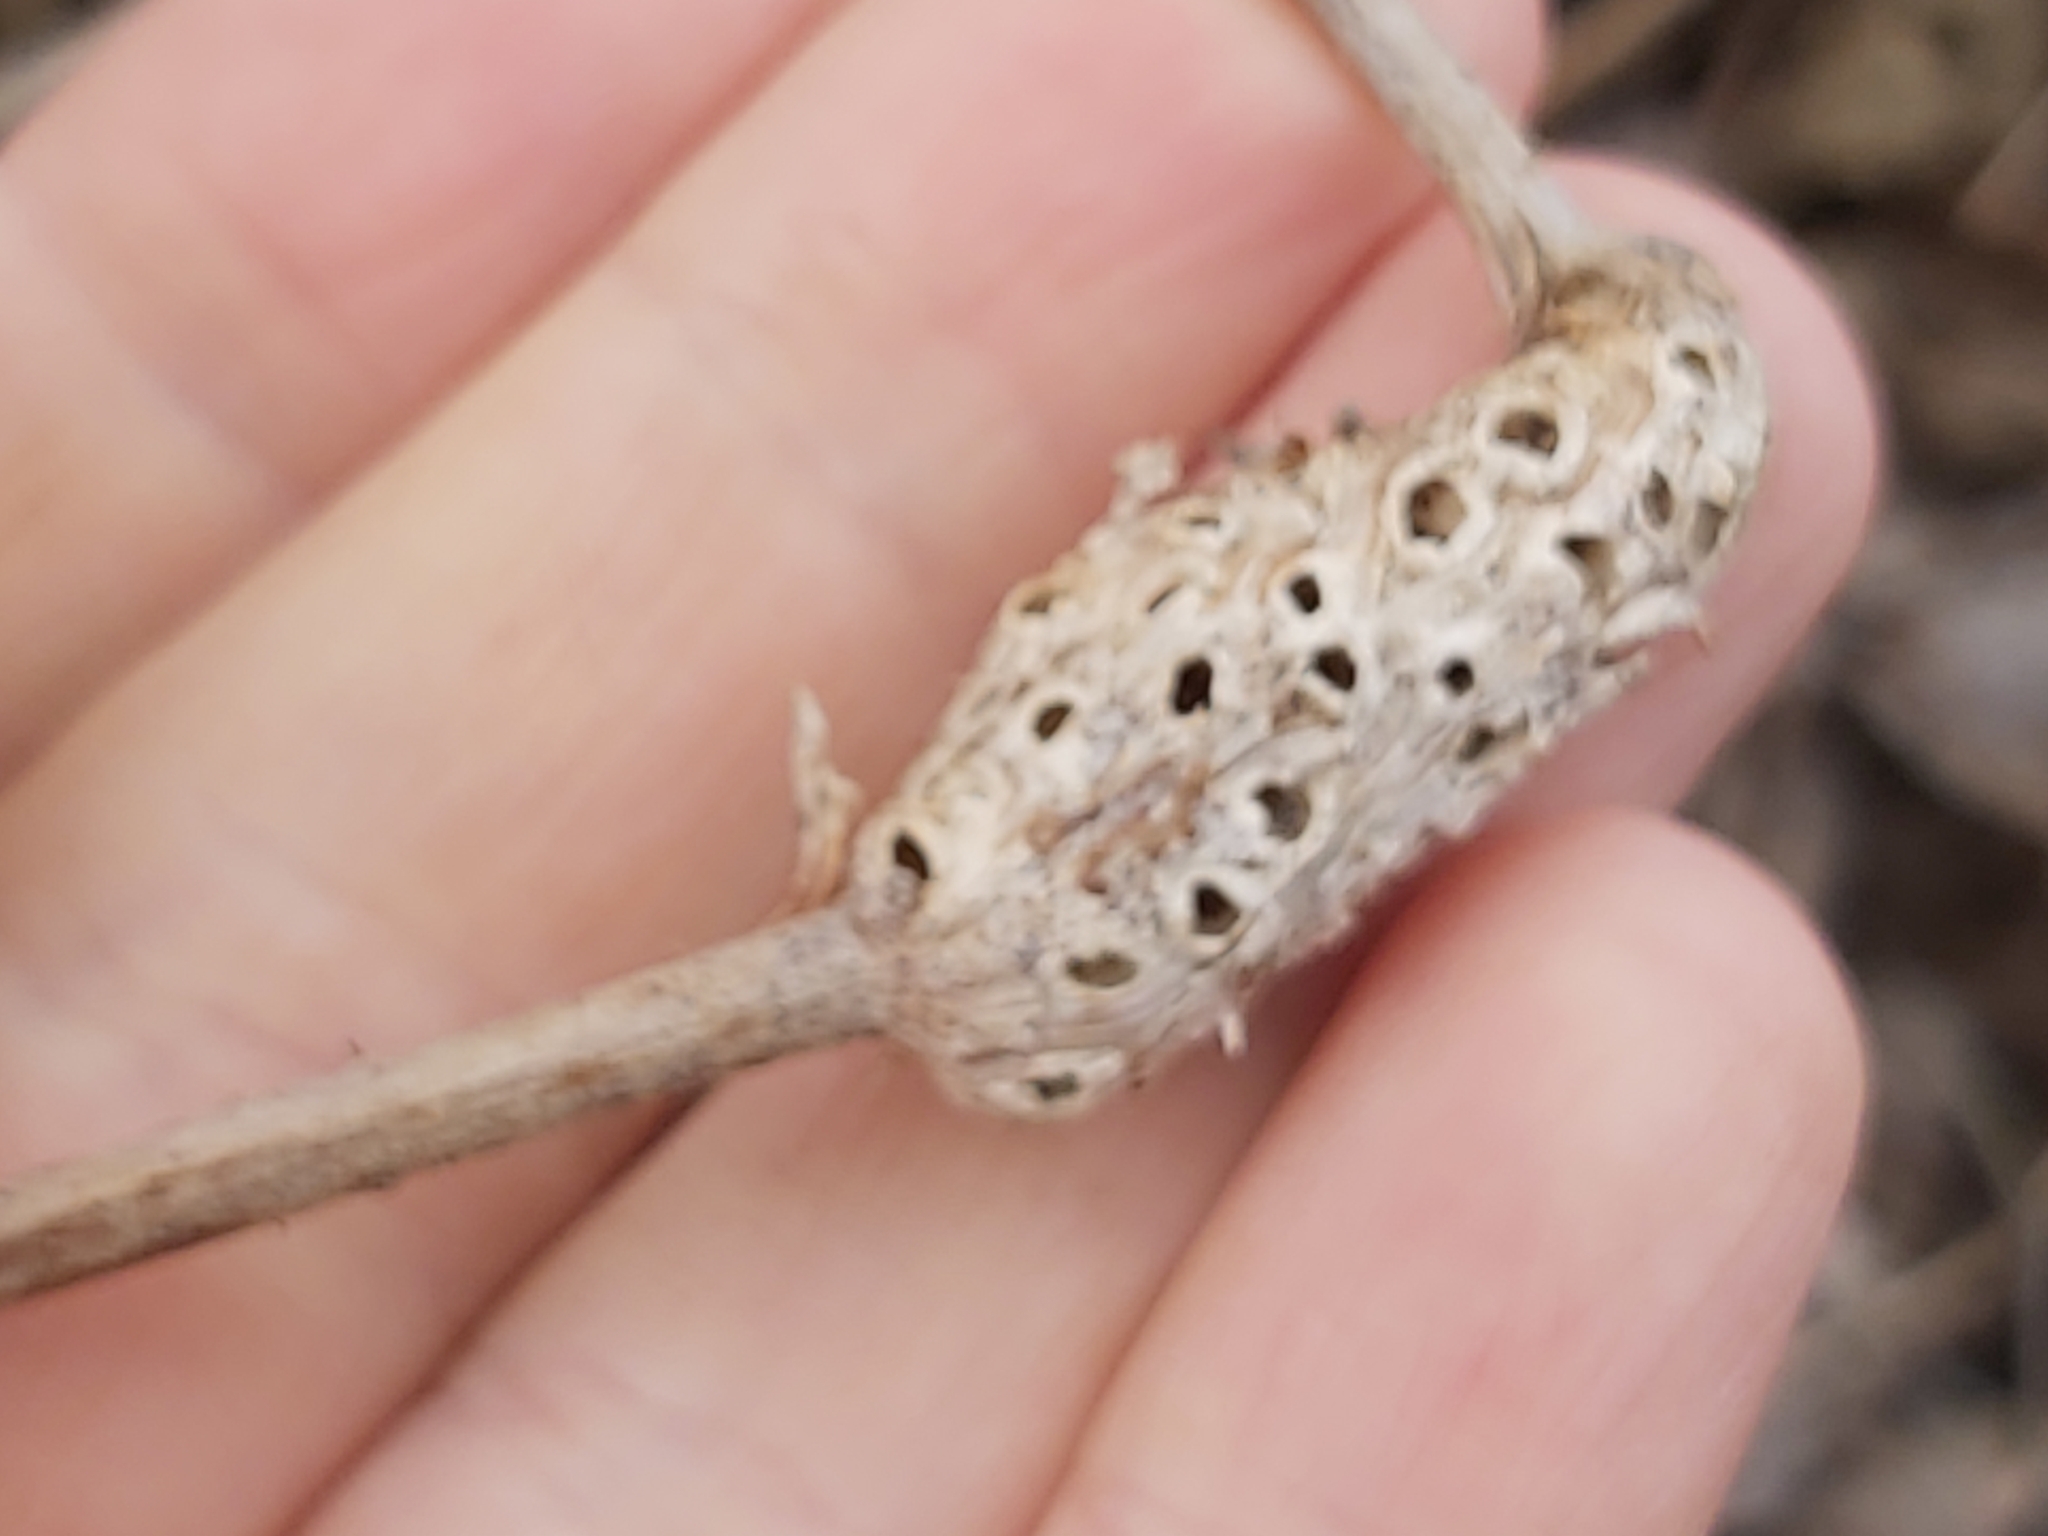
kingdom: Animalia
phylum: Arthropoda
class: Insecta
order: Hymenoptera
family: Cynipidae
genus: Diastrophus
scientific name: Diastrophus rubi
